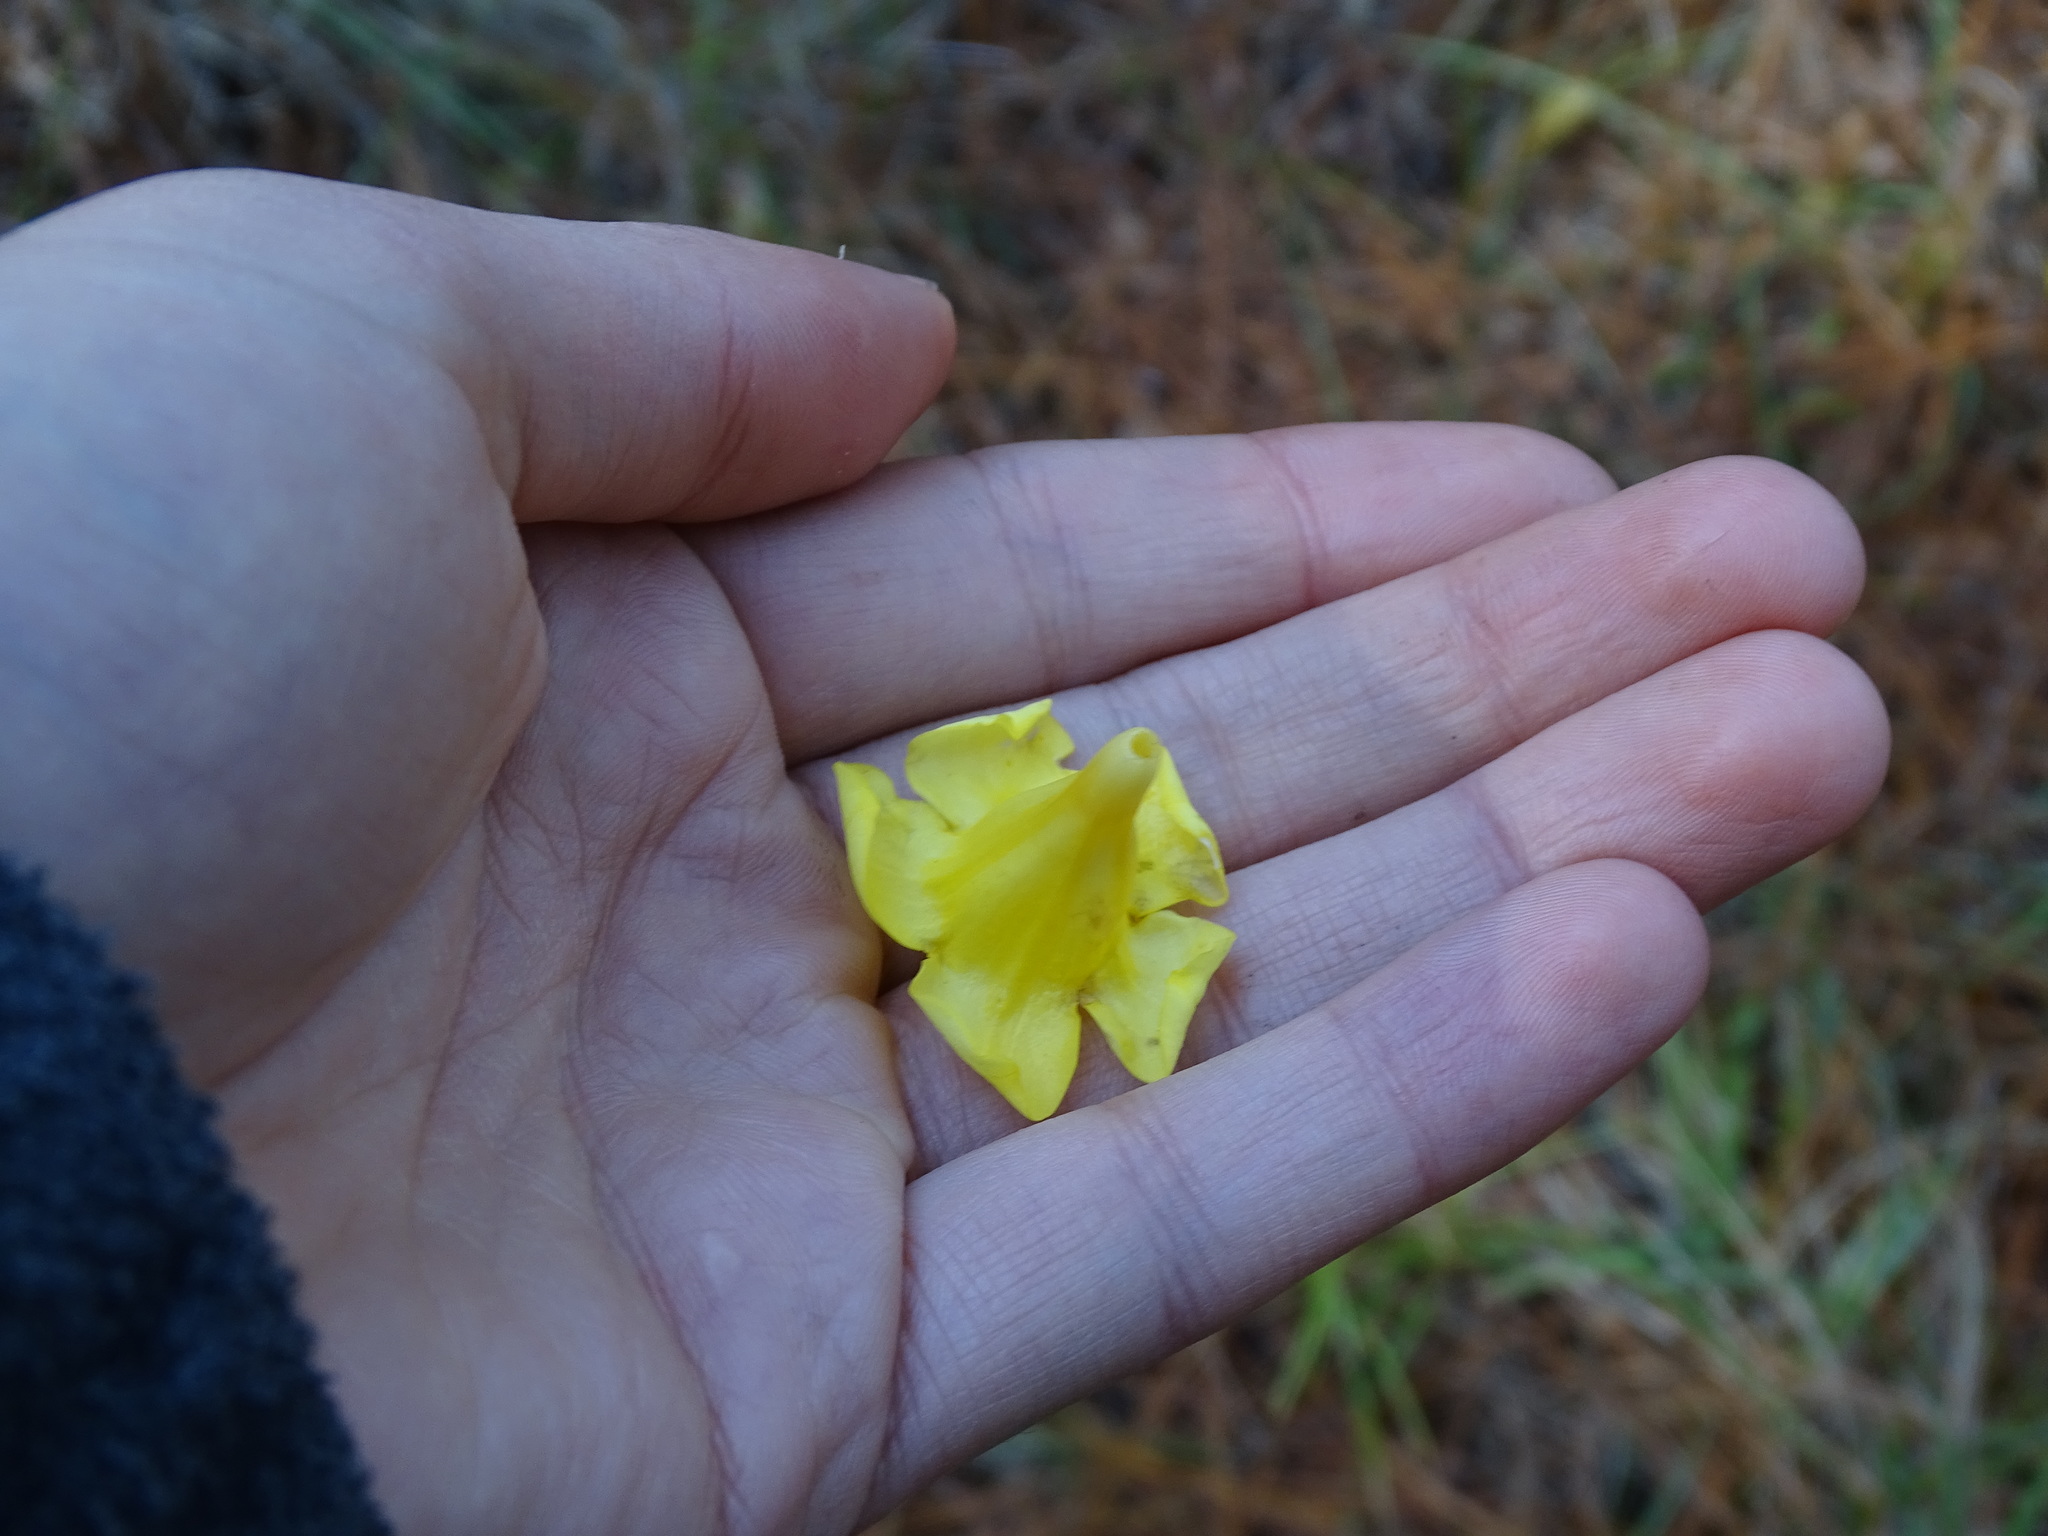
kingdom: Plantae
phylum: Tracheophyta
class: Magnoliopsida
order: Gentianales
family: Gelsemiaceae
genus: Gelsemium
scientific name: Gelsemium sempervirens
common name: Carolina-jasmine
